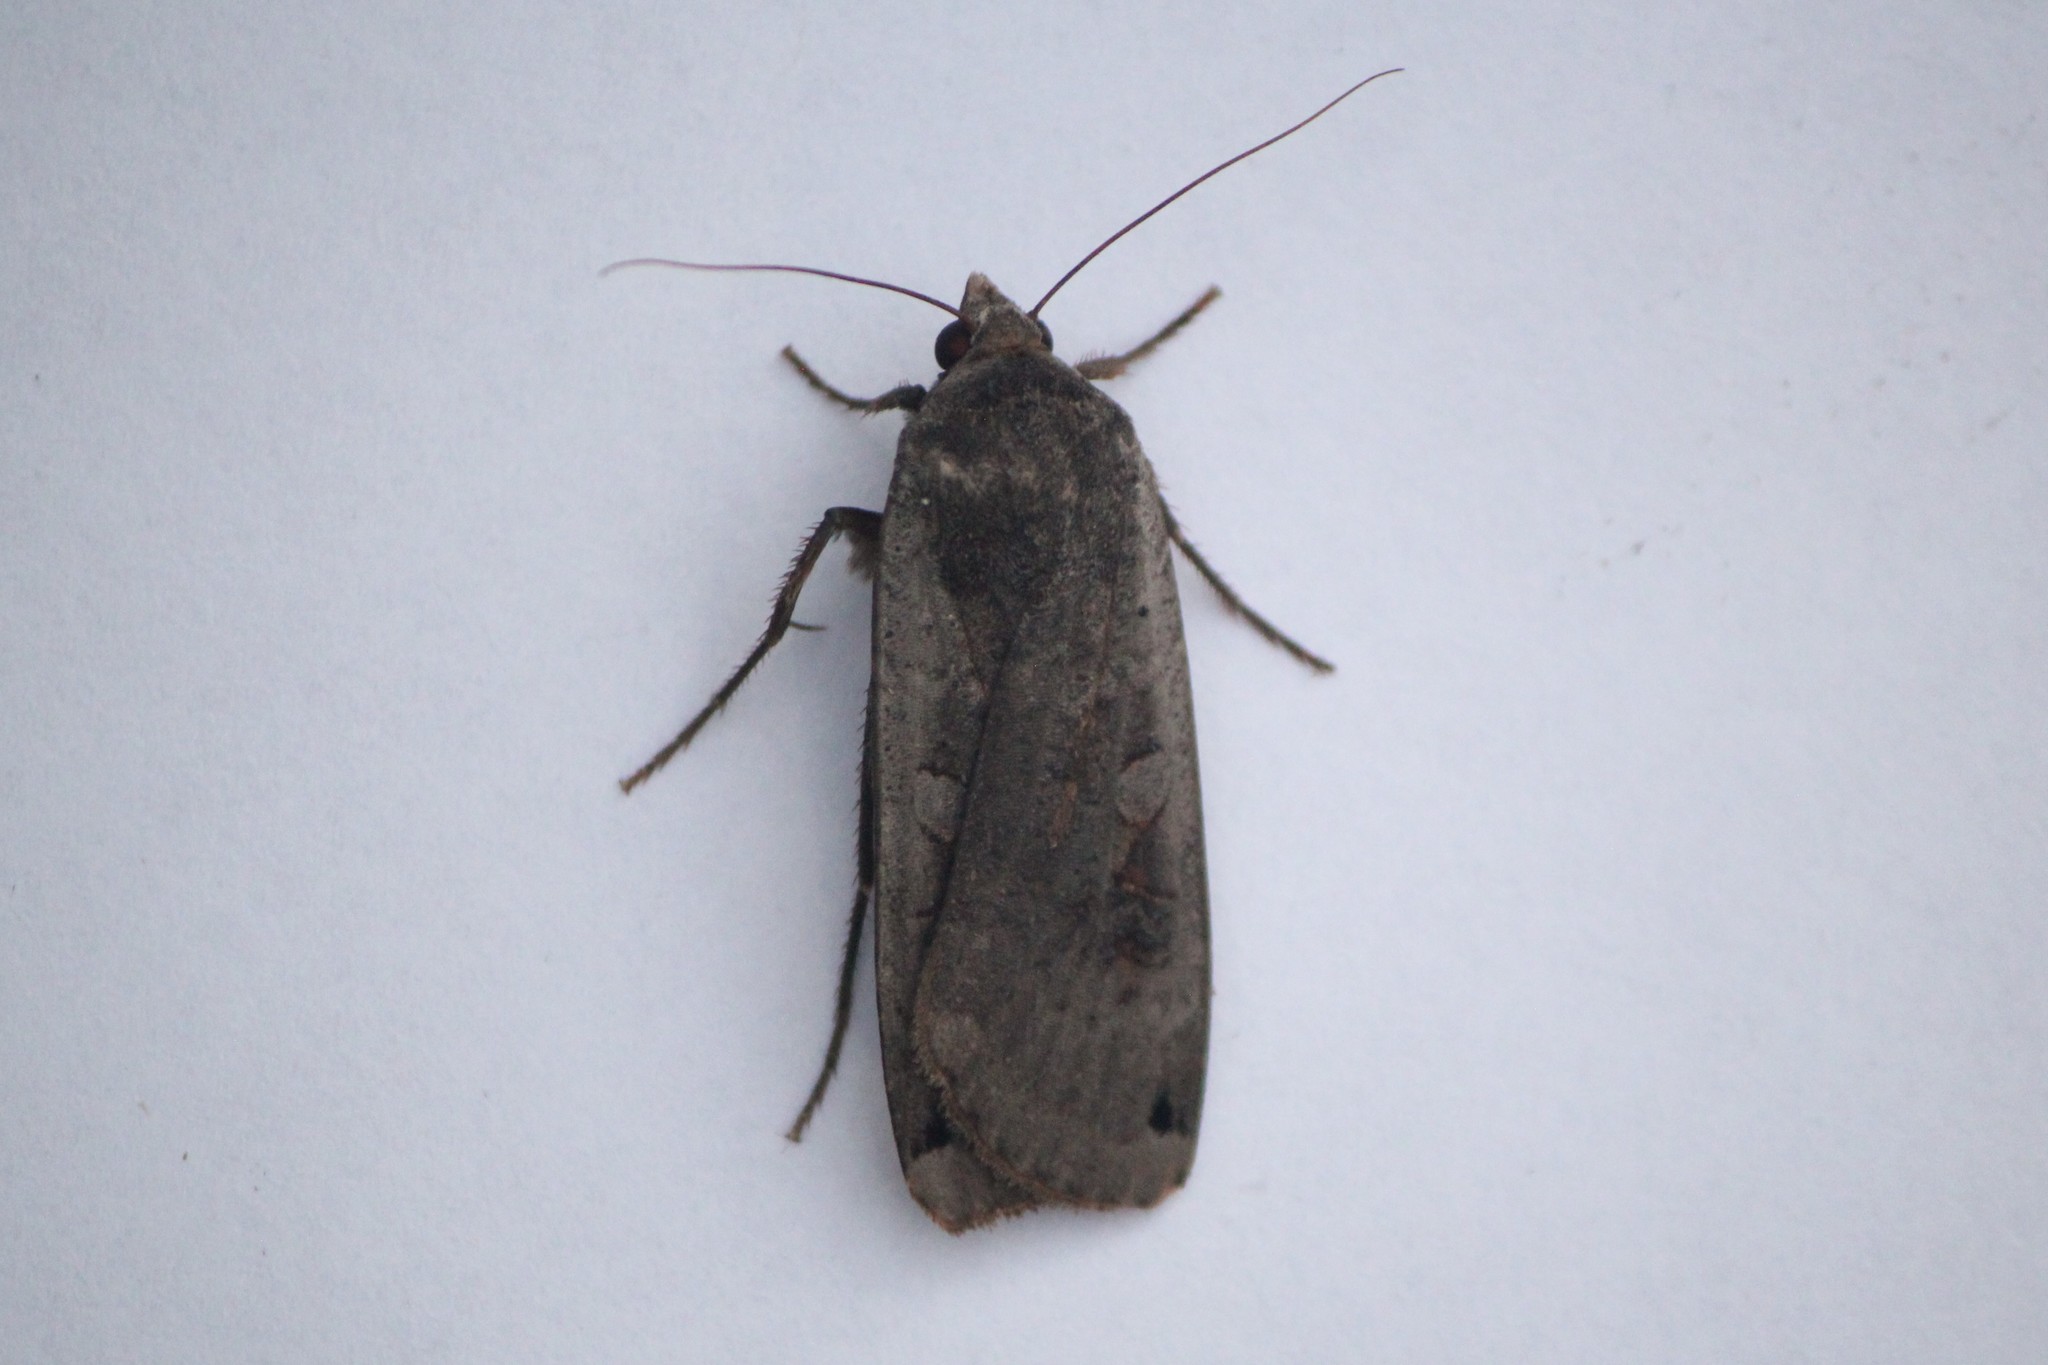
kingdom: Animalia
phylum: Arthropoda
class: Insecta
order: Lepidoptera
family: Noctuidae
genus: Noctua
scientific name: Noctua pronuba
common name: Large yellow underwing
